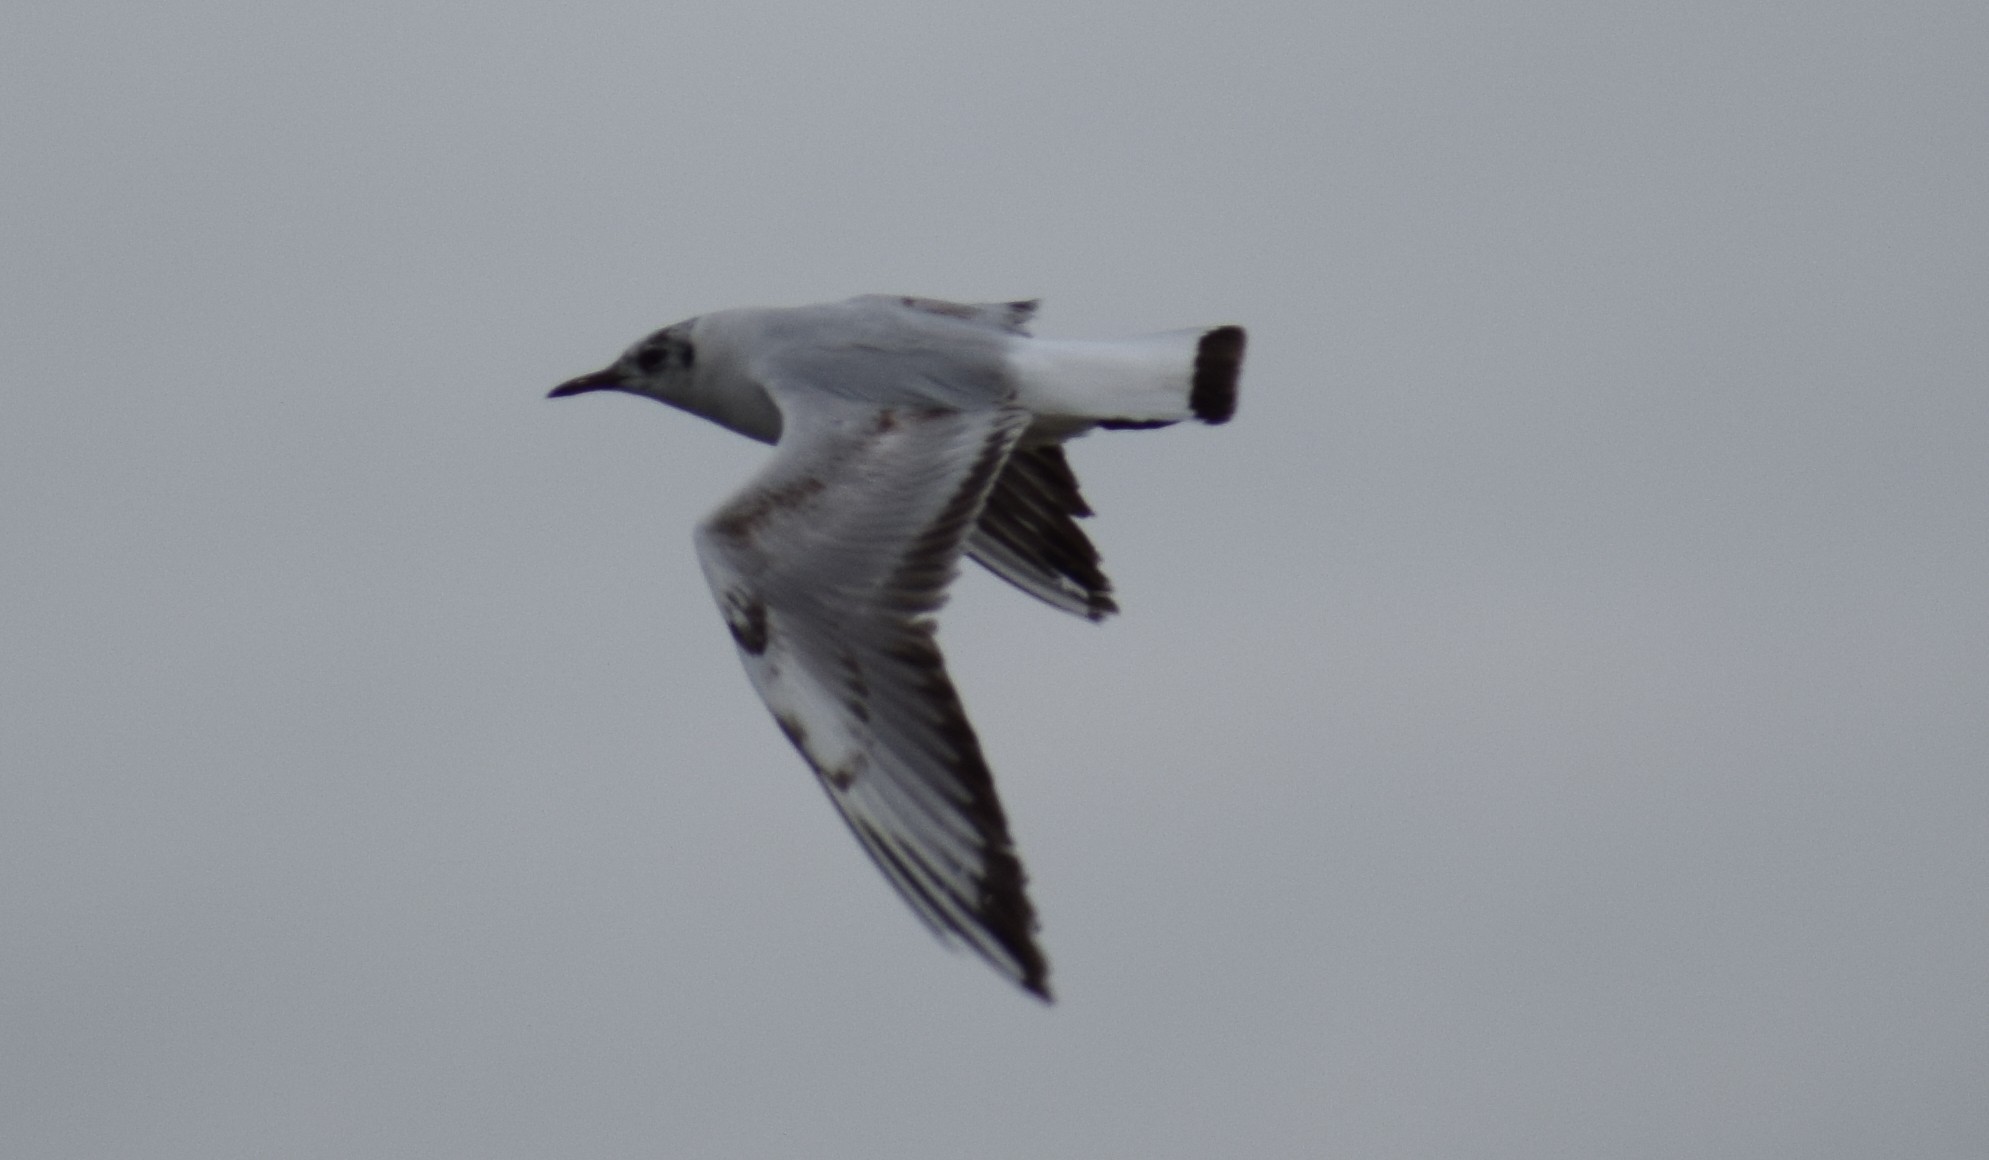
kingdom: Animalia
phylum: Chordata
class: Aves
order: Charadriiformes
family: Laridae
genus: Chroicocephalus
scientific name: Chroicocephalus ridibundus
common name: Black-headed gull
